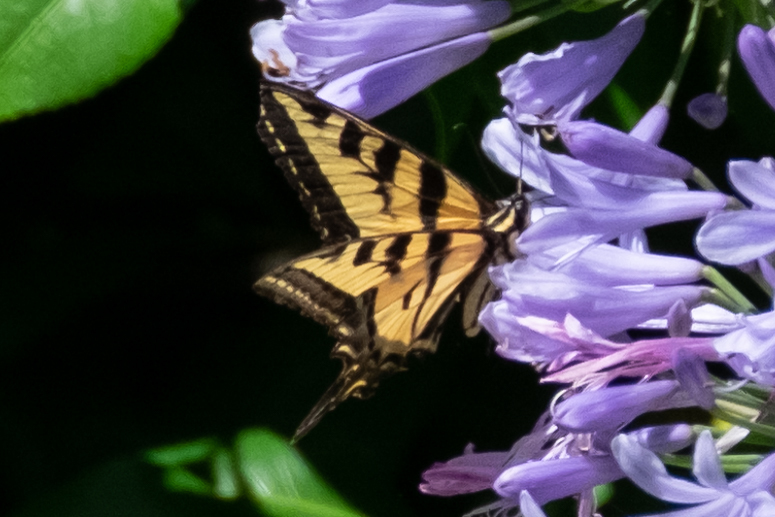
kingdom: Animalia
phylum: Arthropoda
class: Insecta
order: Lepidoptera
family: Papilionidae
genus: Papilio
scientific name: Papilio rutulus
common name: Western tiger swallowtail
